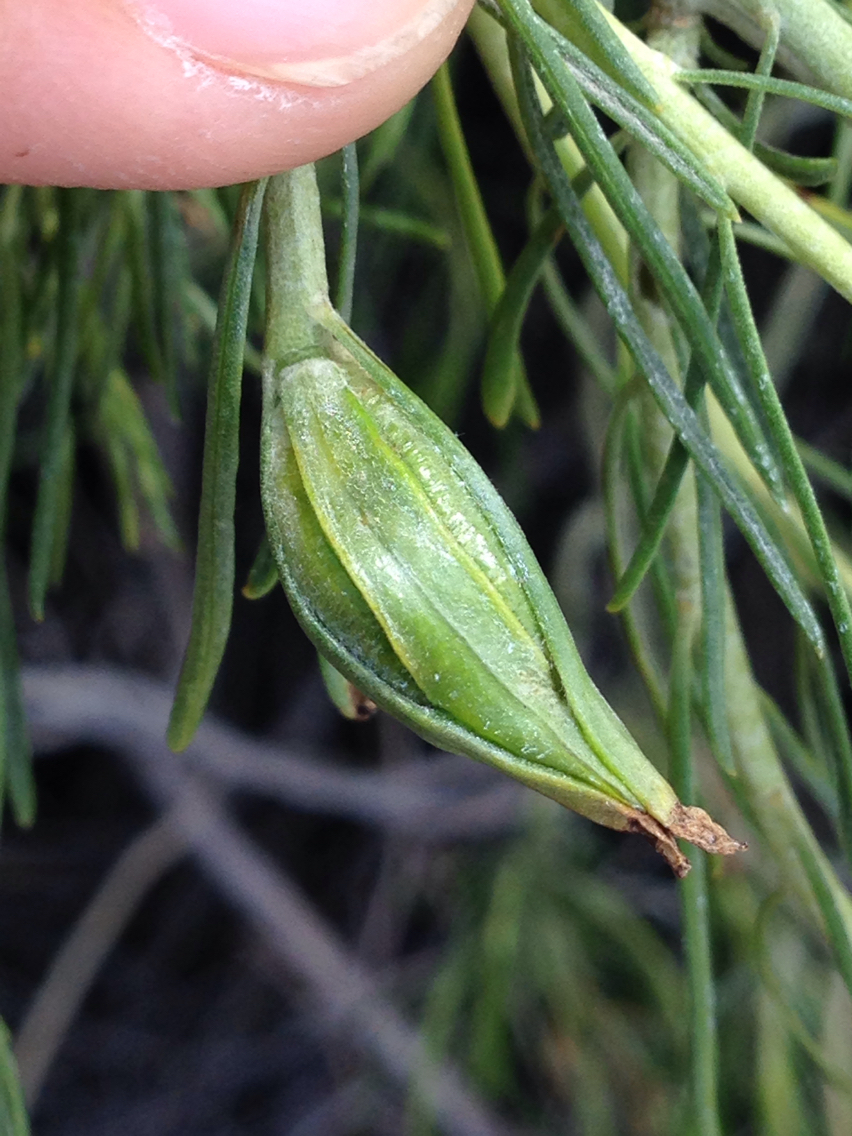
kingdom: Animalia
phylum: Arthropoda
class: Insecta
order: Lepidoptera
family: Gelechiidae
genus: Gnorimoschema
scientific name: Gnorimoschema octomaculella
